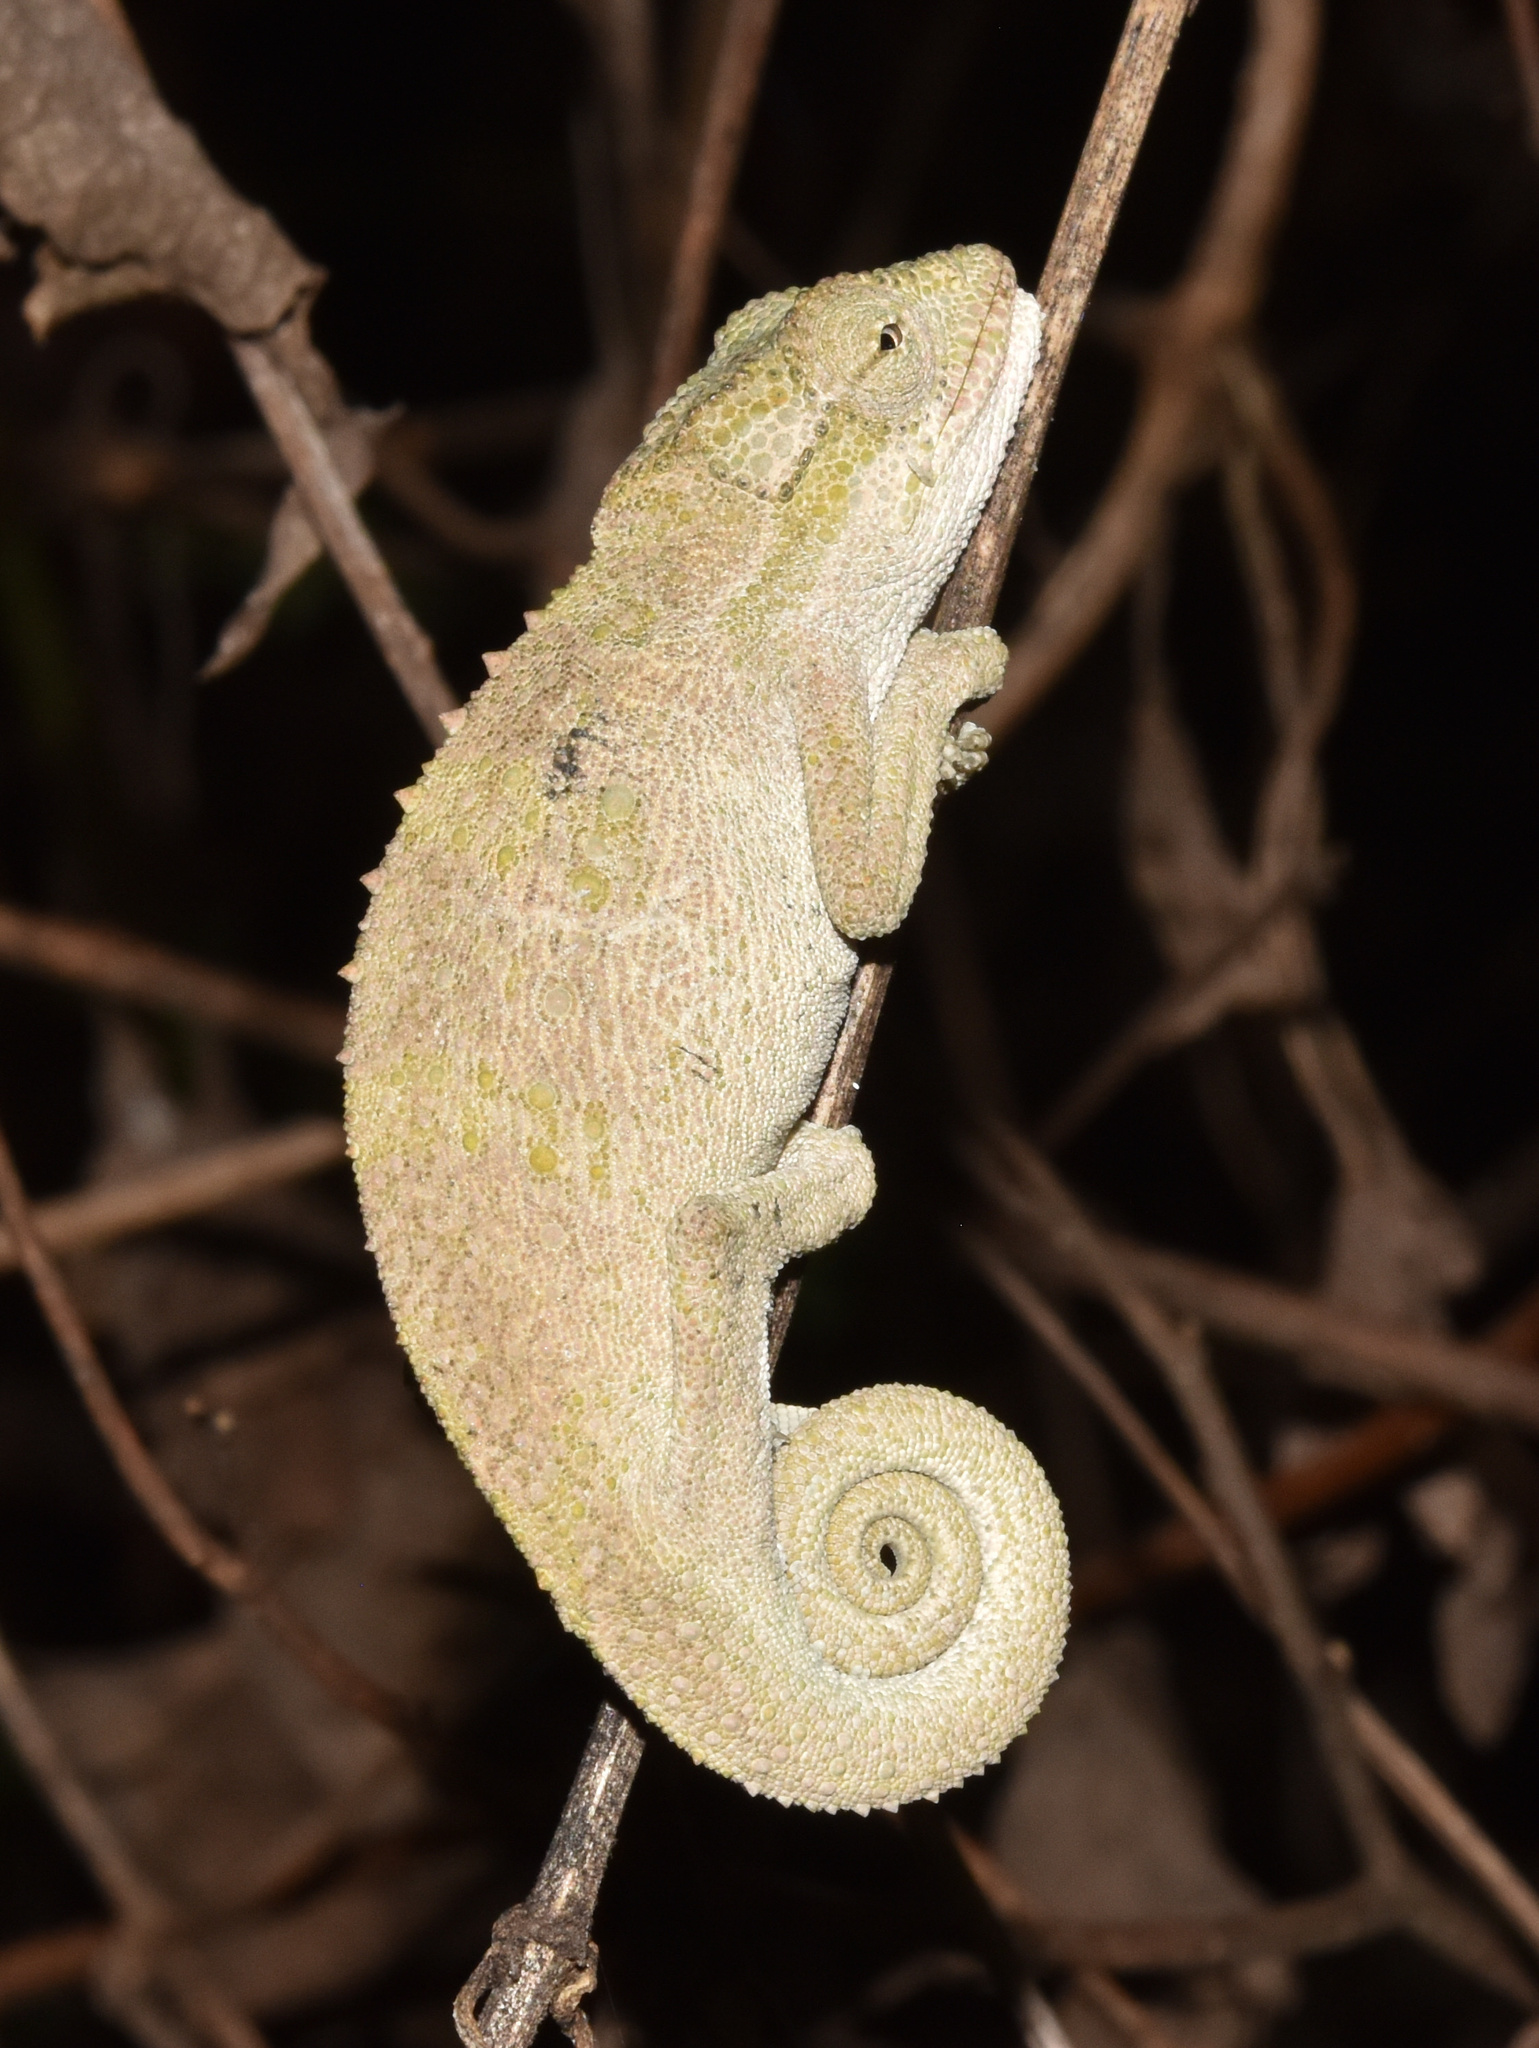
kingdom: Animalia
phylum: Chordata
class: Squamata
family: Chamaeleonidae
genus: Bradypodion
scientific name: Bradypodion melanocephalum
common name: Black-headed dwarf chameleon
